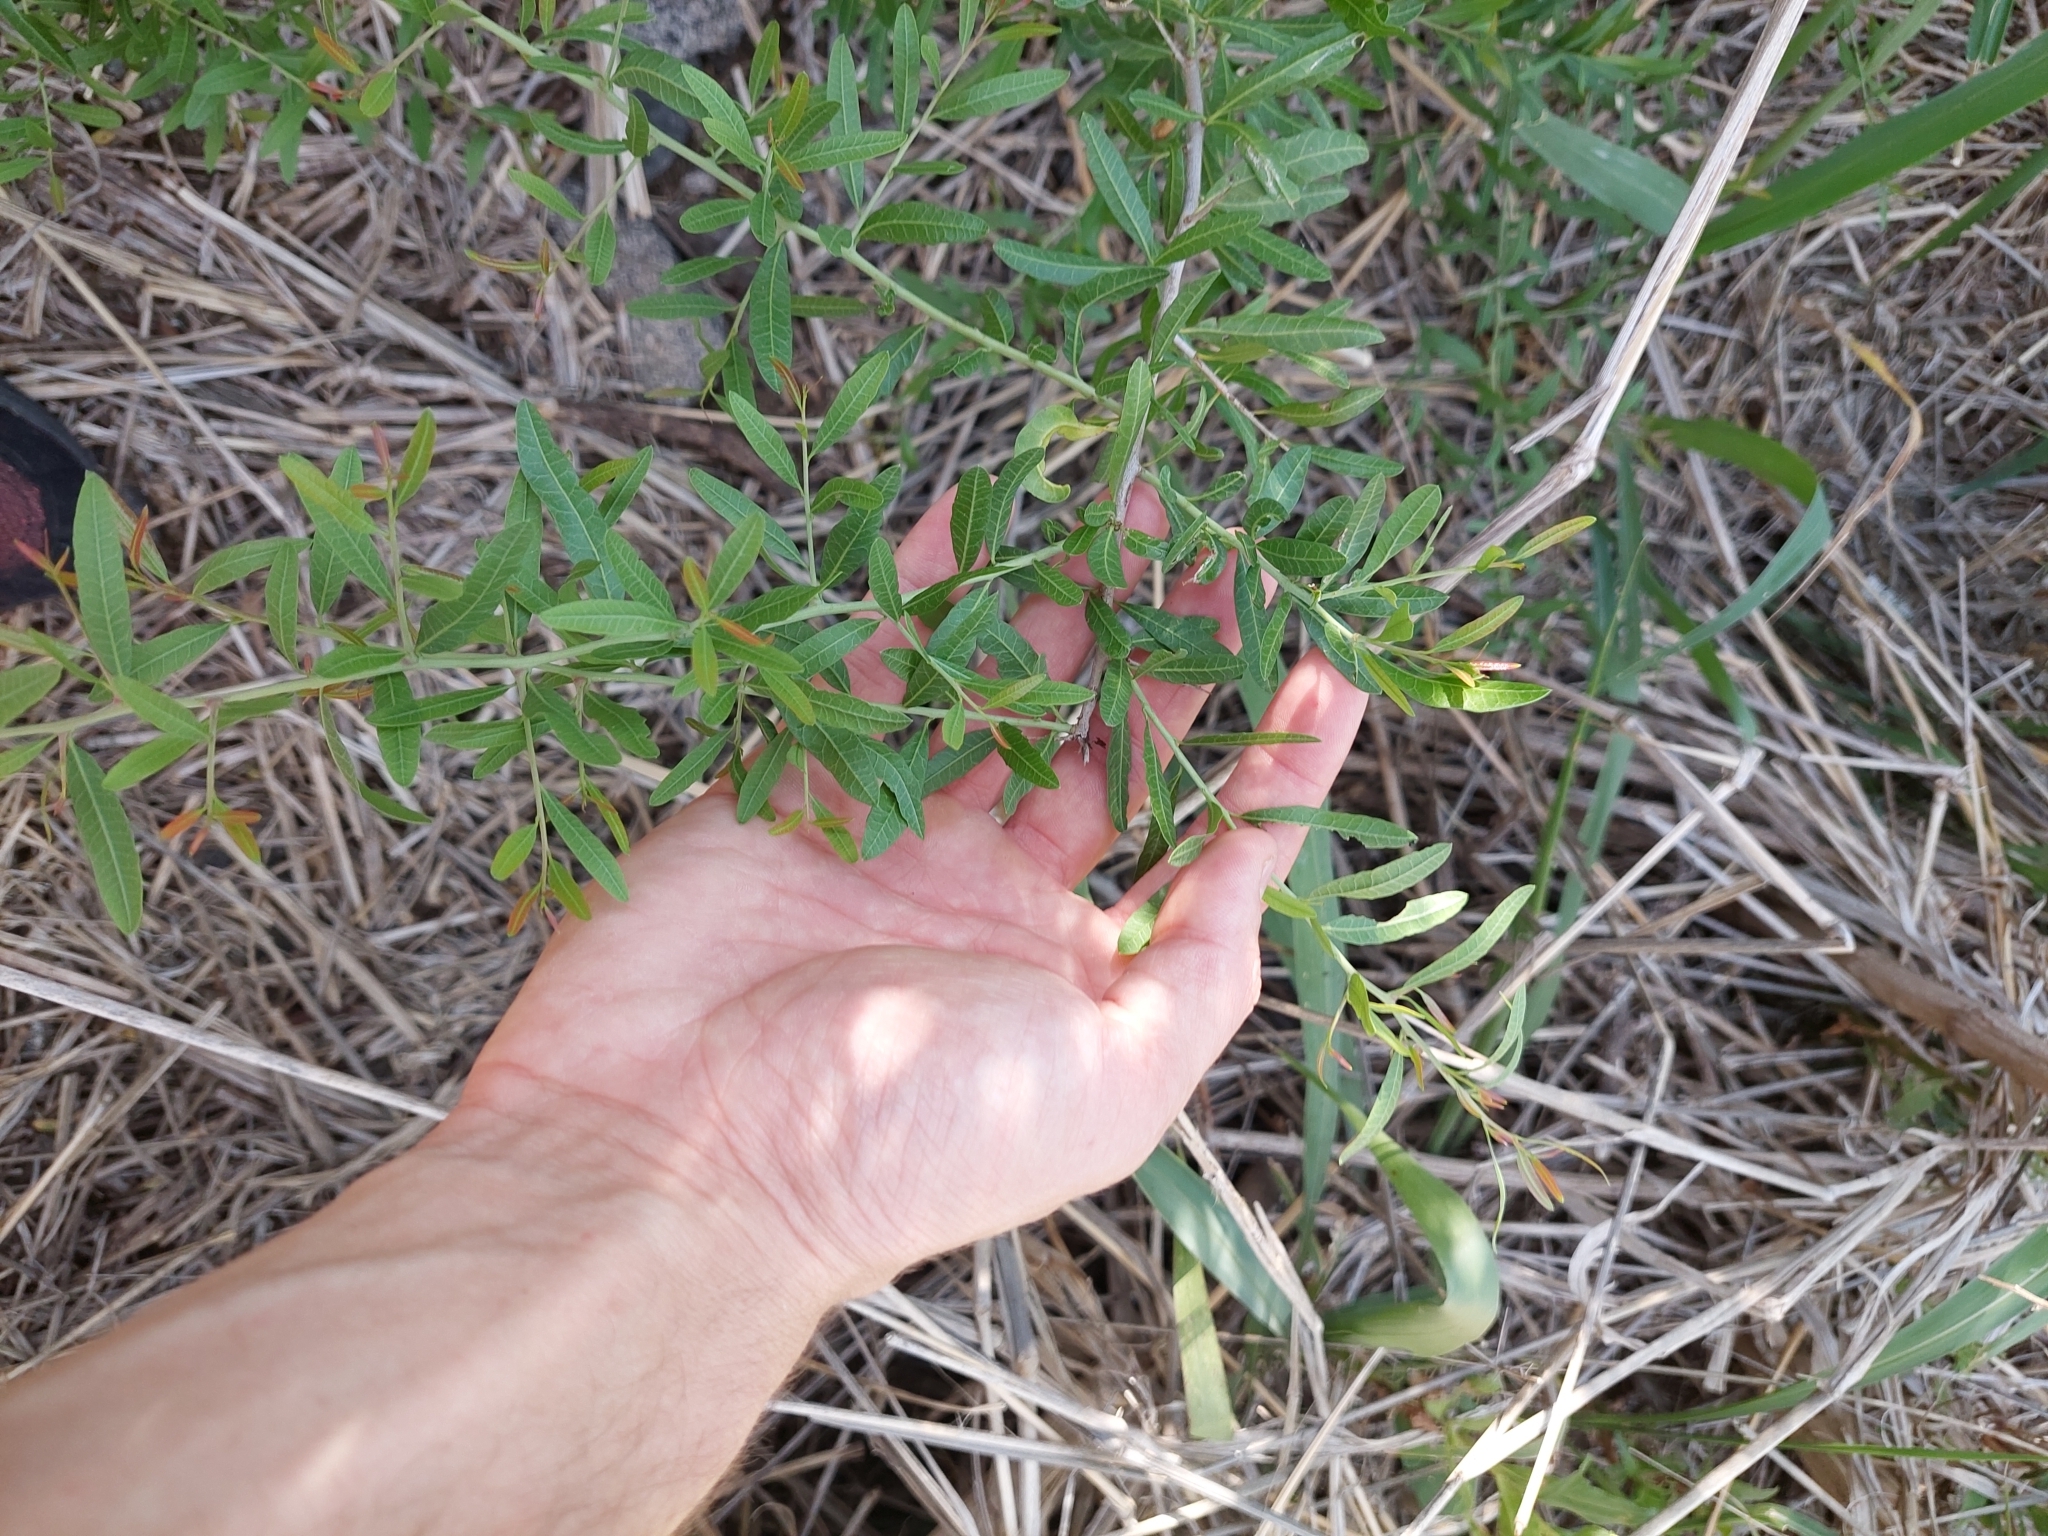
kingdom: Plantae
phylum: Tracheophyta
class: Magnoliopsida
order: Sapindales
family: Anacardiaceae
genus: Schinus
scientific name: Schinus longifolia
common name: Longleaf peppertree
